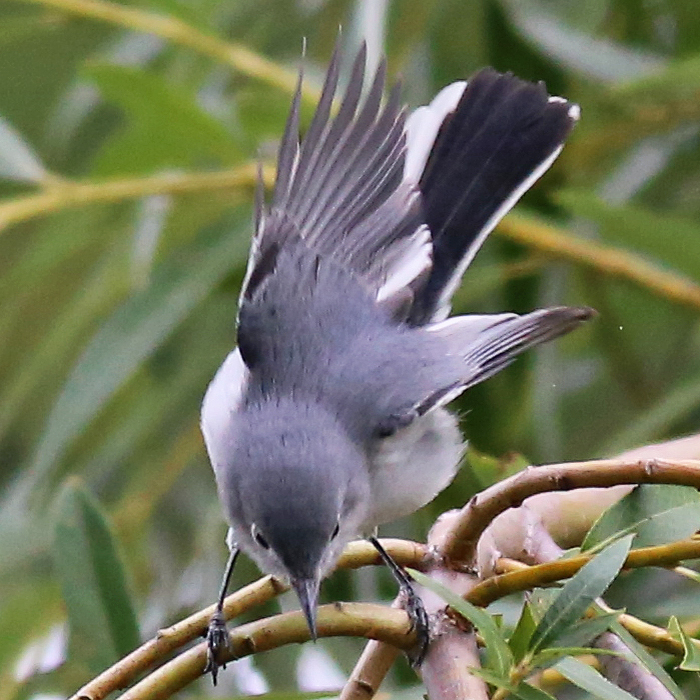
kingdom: Animalia
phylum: Chordata
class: Aves
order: Passeriformes
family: Polioptilidae
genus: Polioptila
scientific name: Polioptila caerulea
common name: Blue-gray gnatcatcher
